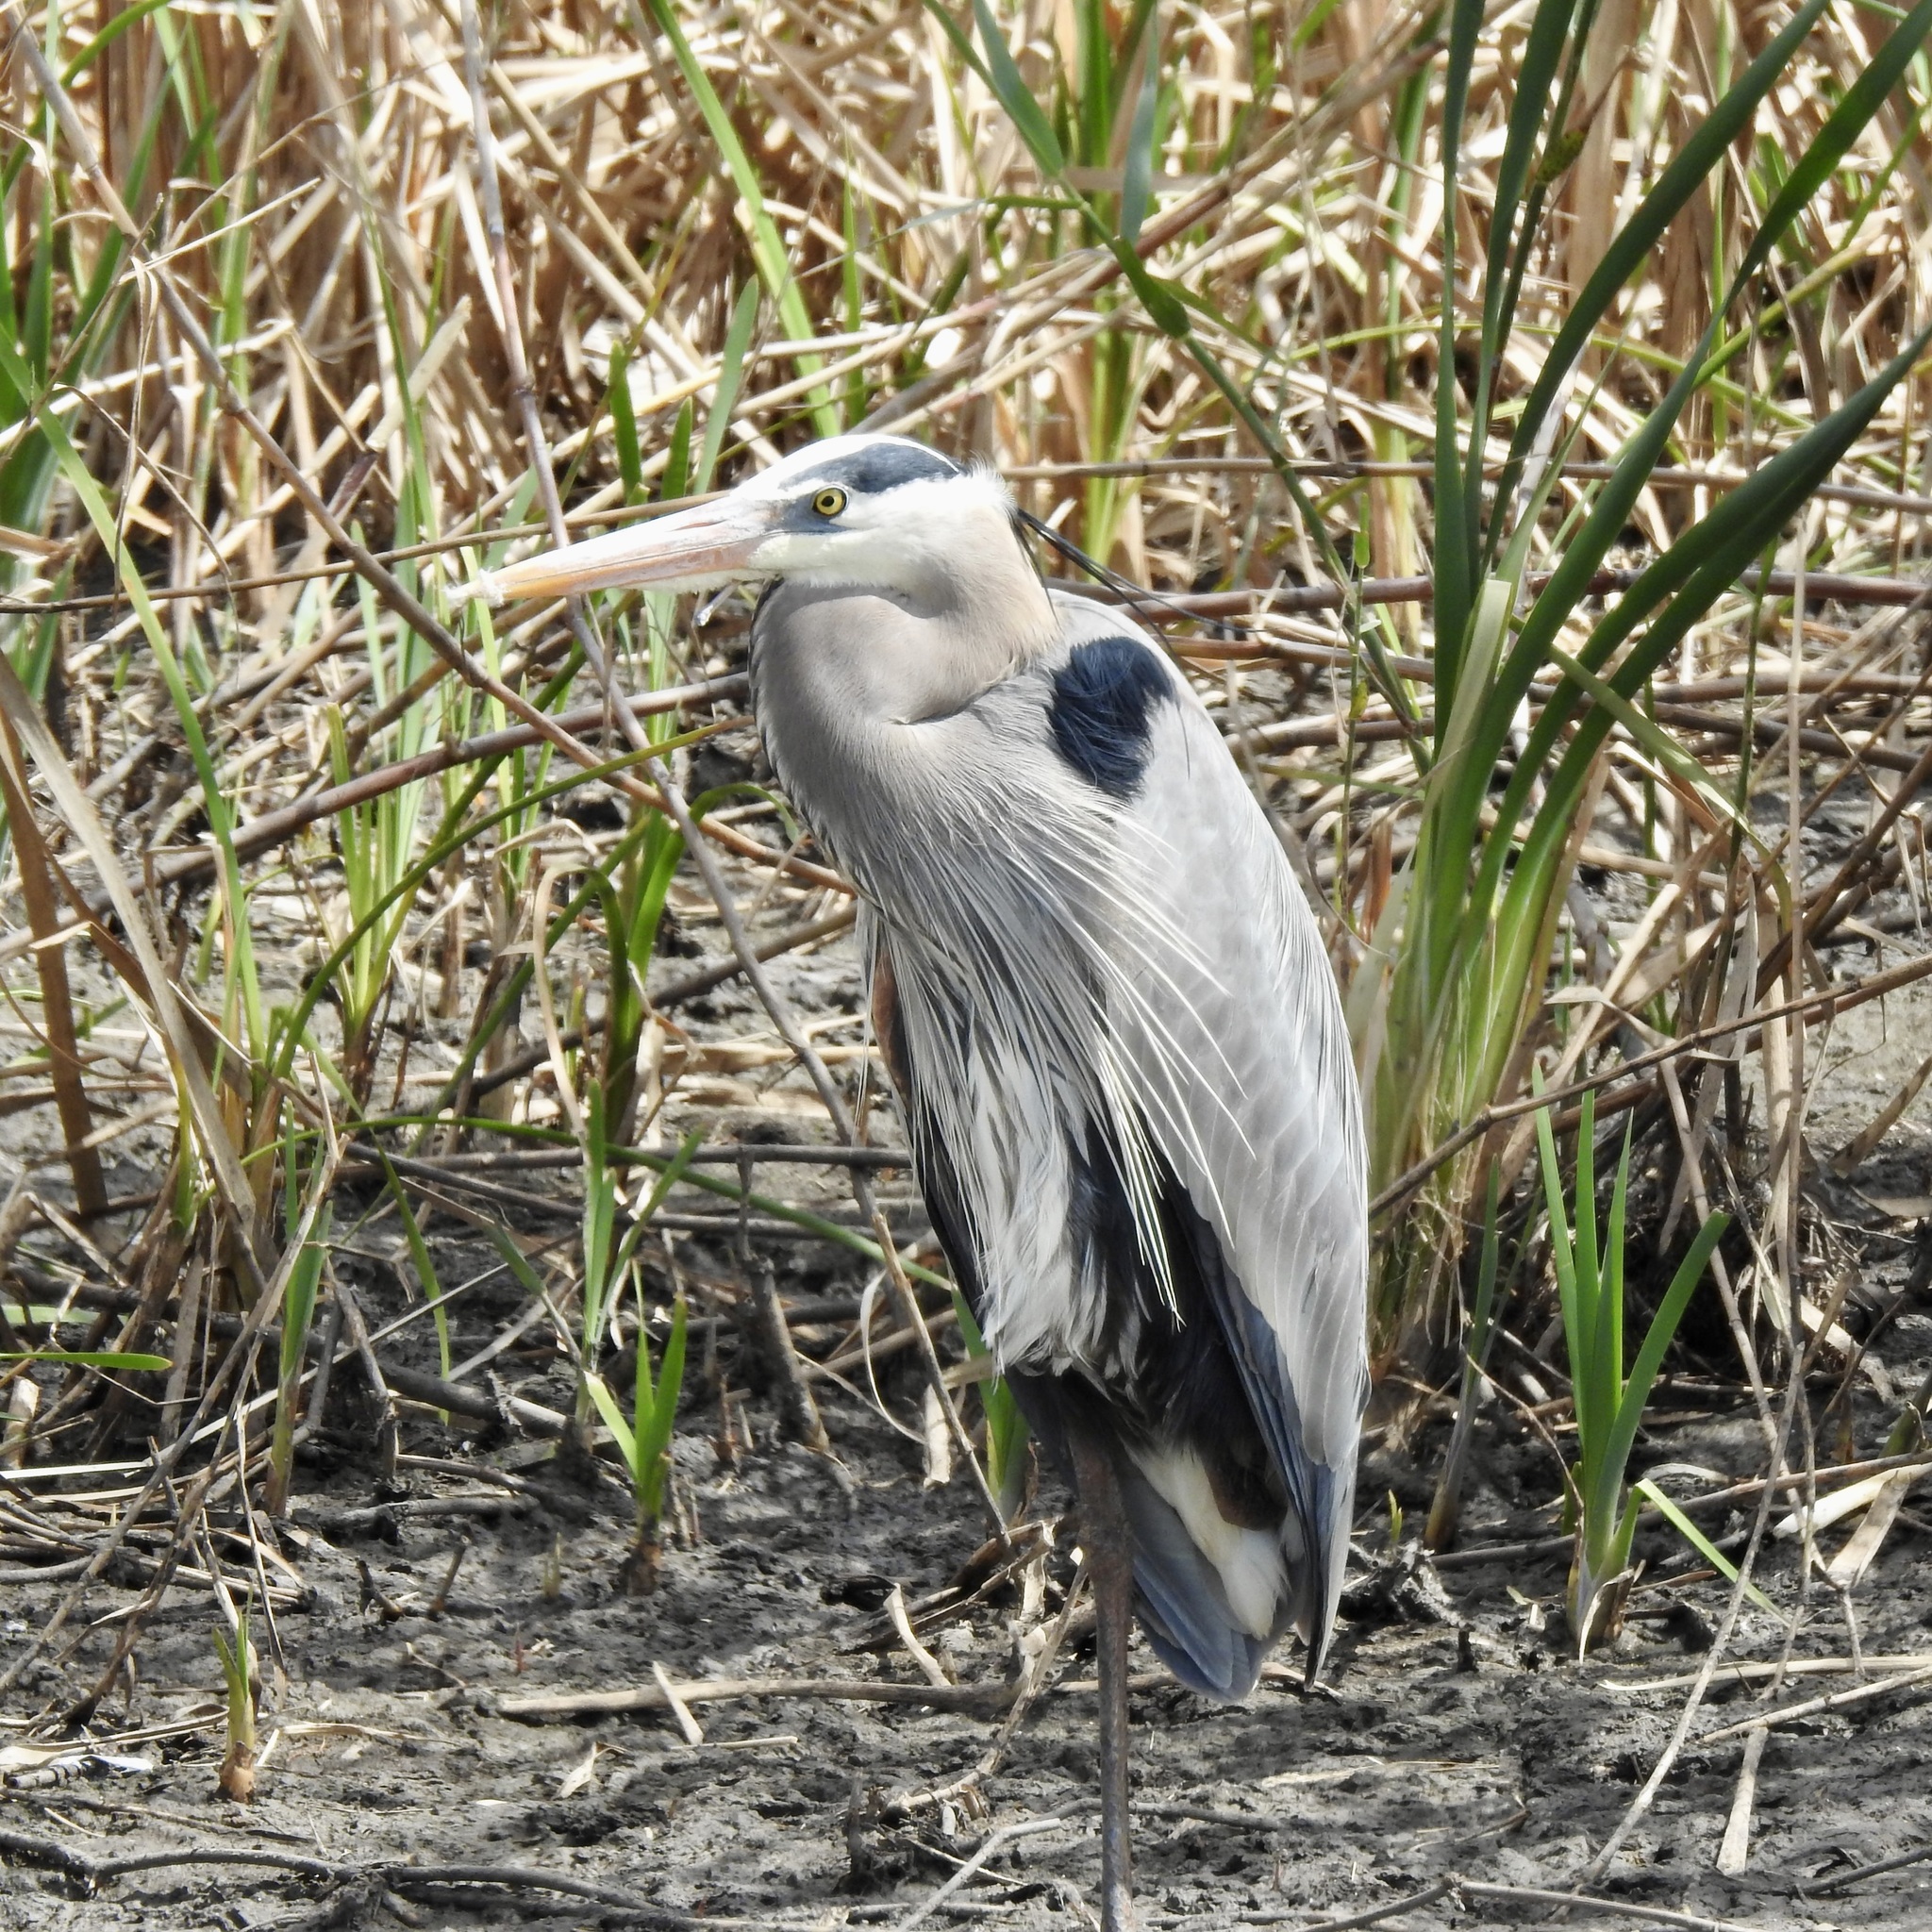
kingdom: Animalia
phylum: Chordata
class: Aves
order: Pelecaniformes
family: Ardeidae
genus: Ardea
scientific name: Ardea herodias
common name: Great blue heron
